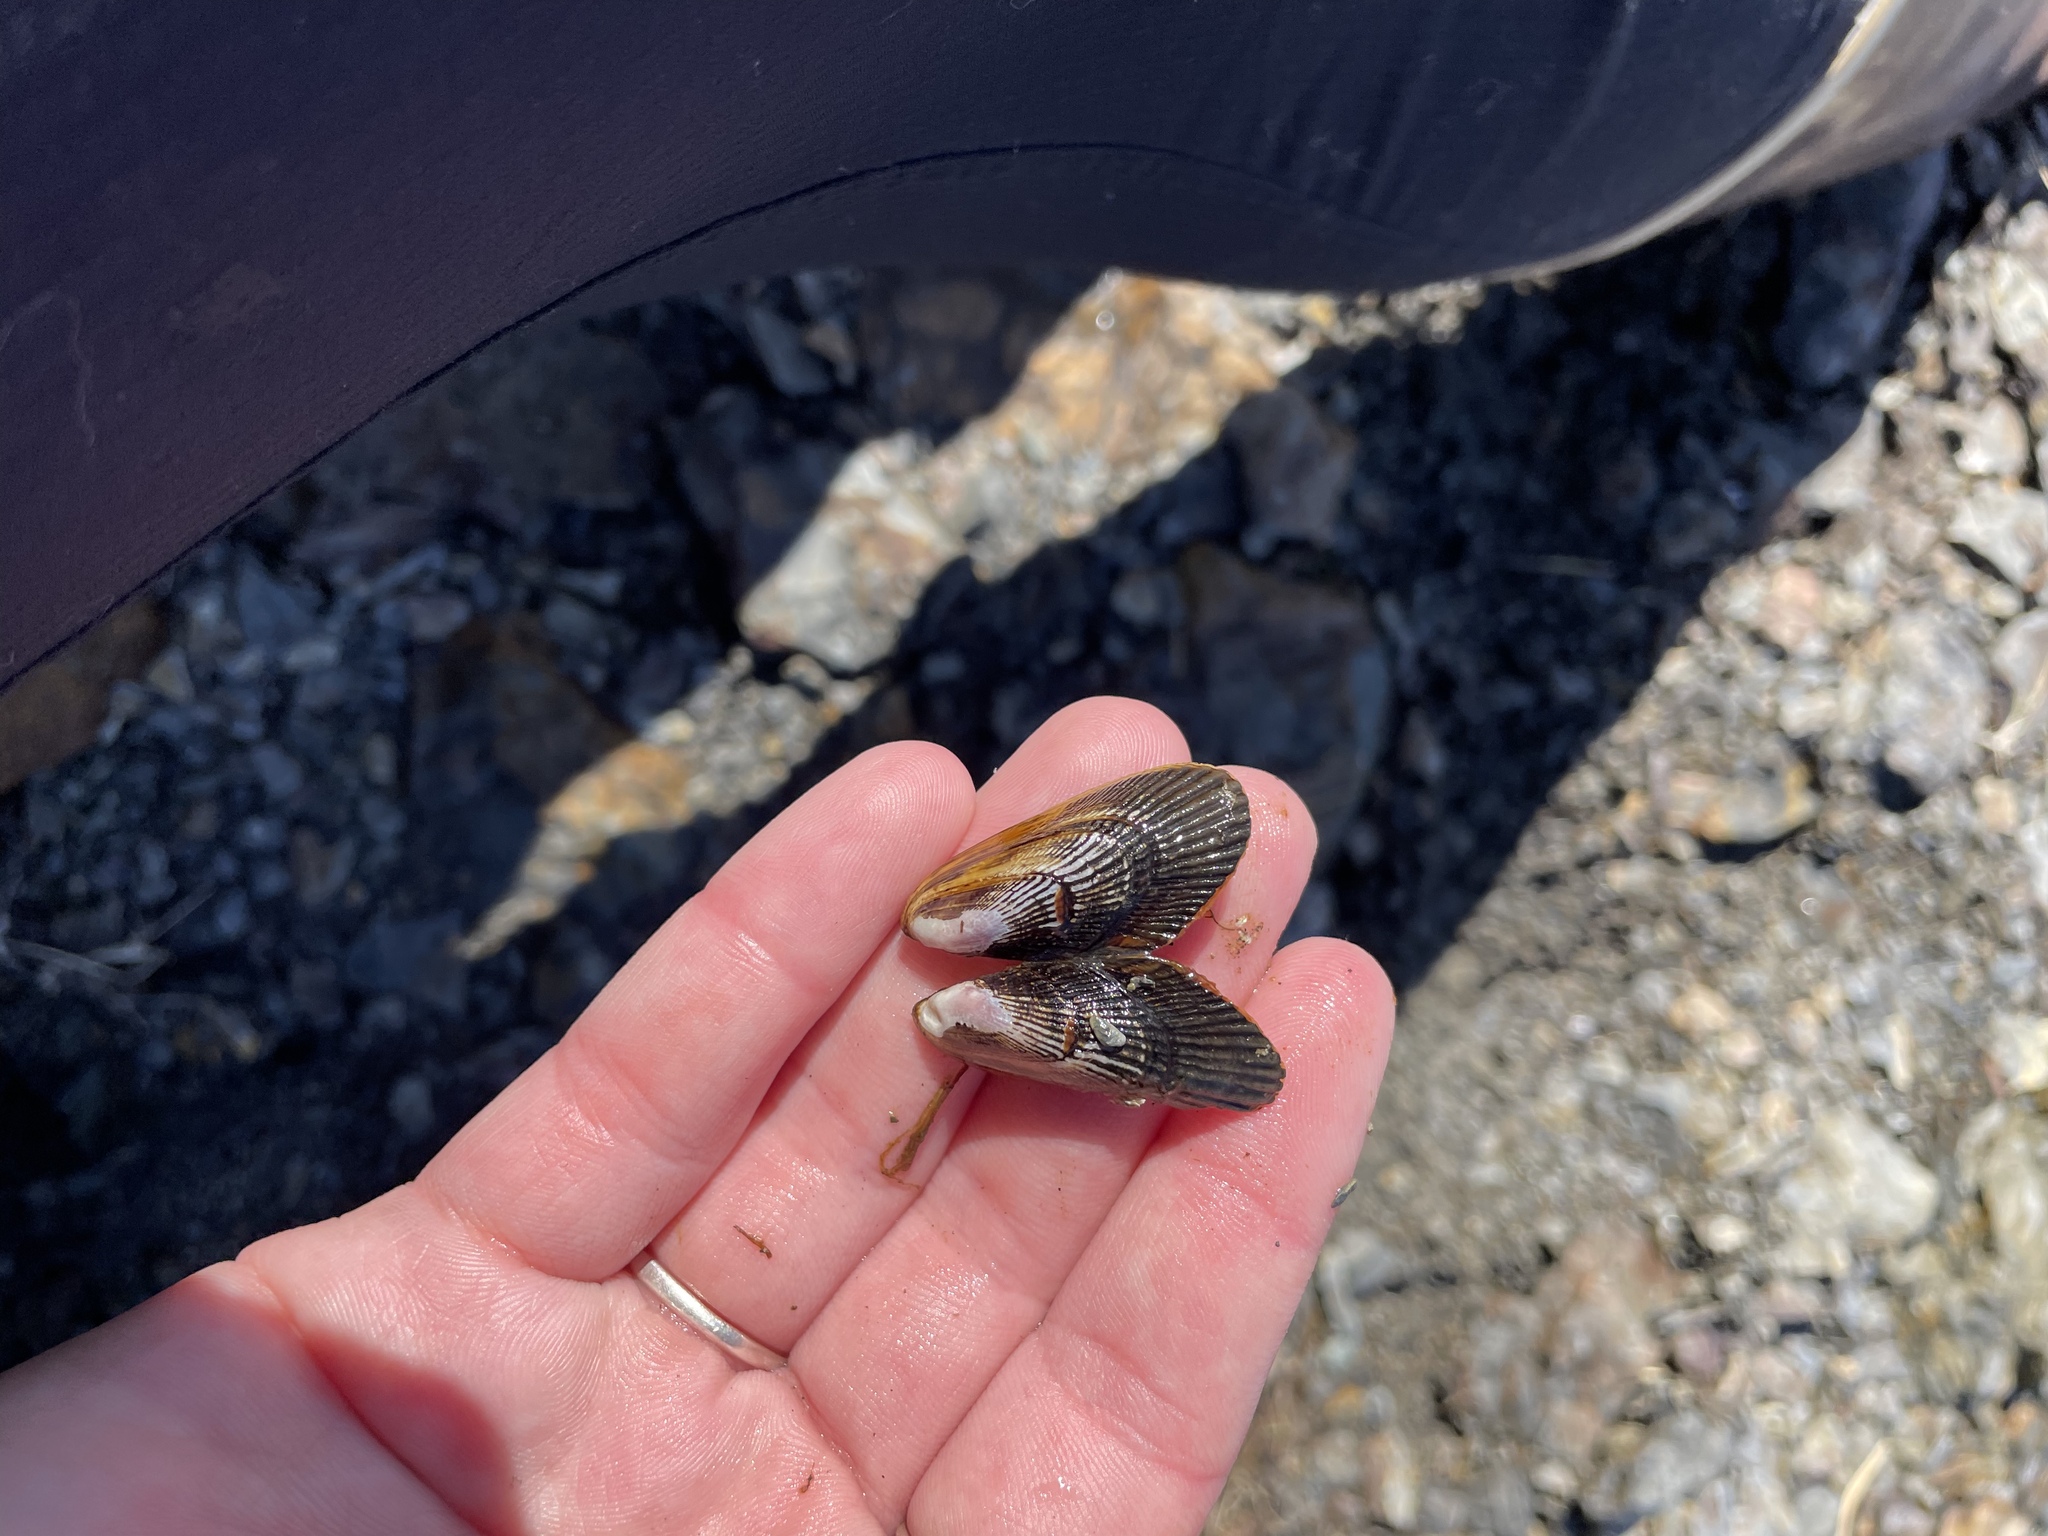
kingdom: Animalia
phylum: Mollusca
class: Bivalvia
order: Mytilida
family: Mytilidae
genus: Geukensia
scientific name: Geukensia demissa
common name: Ribbed mussel
